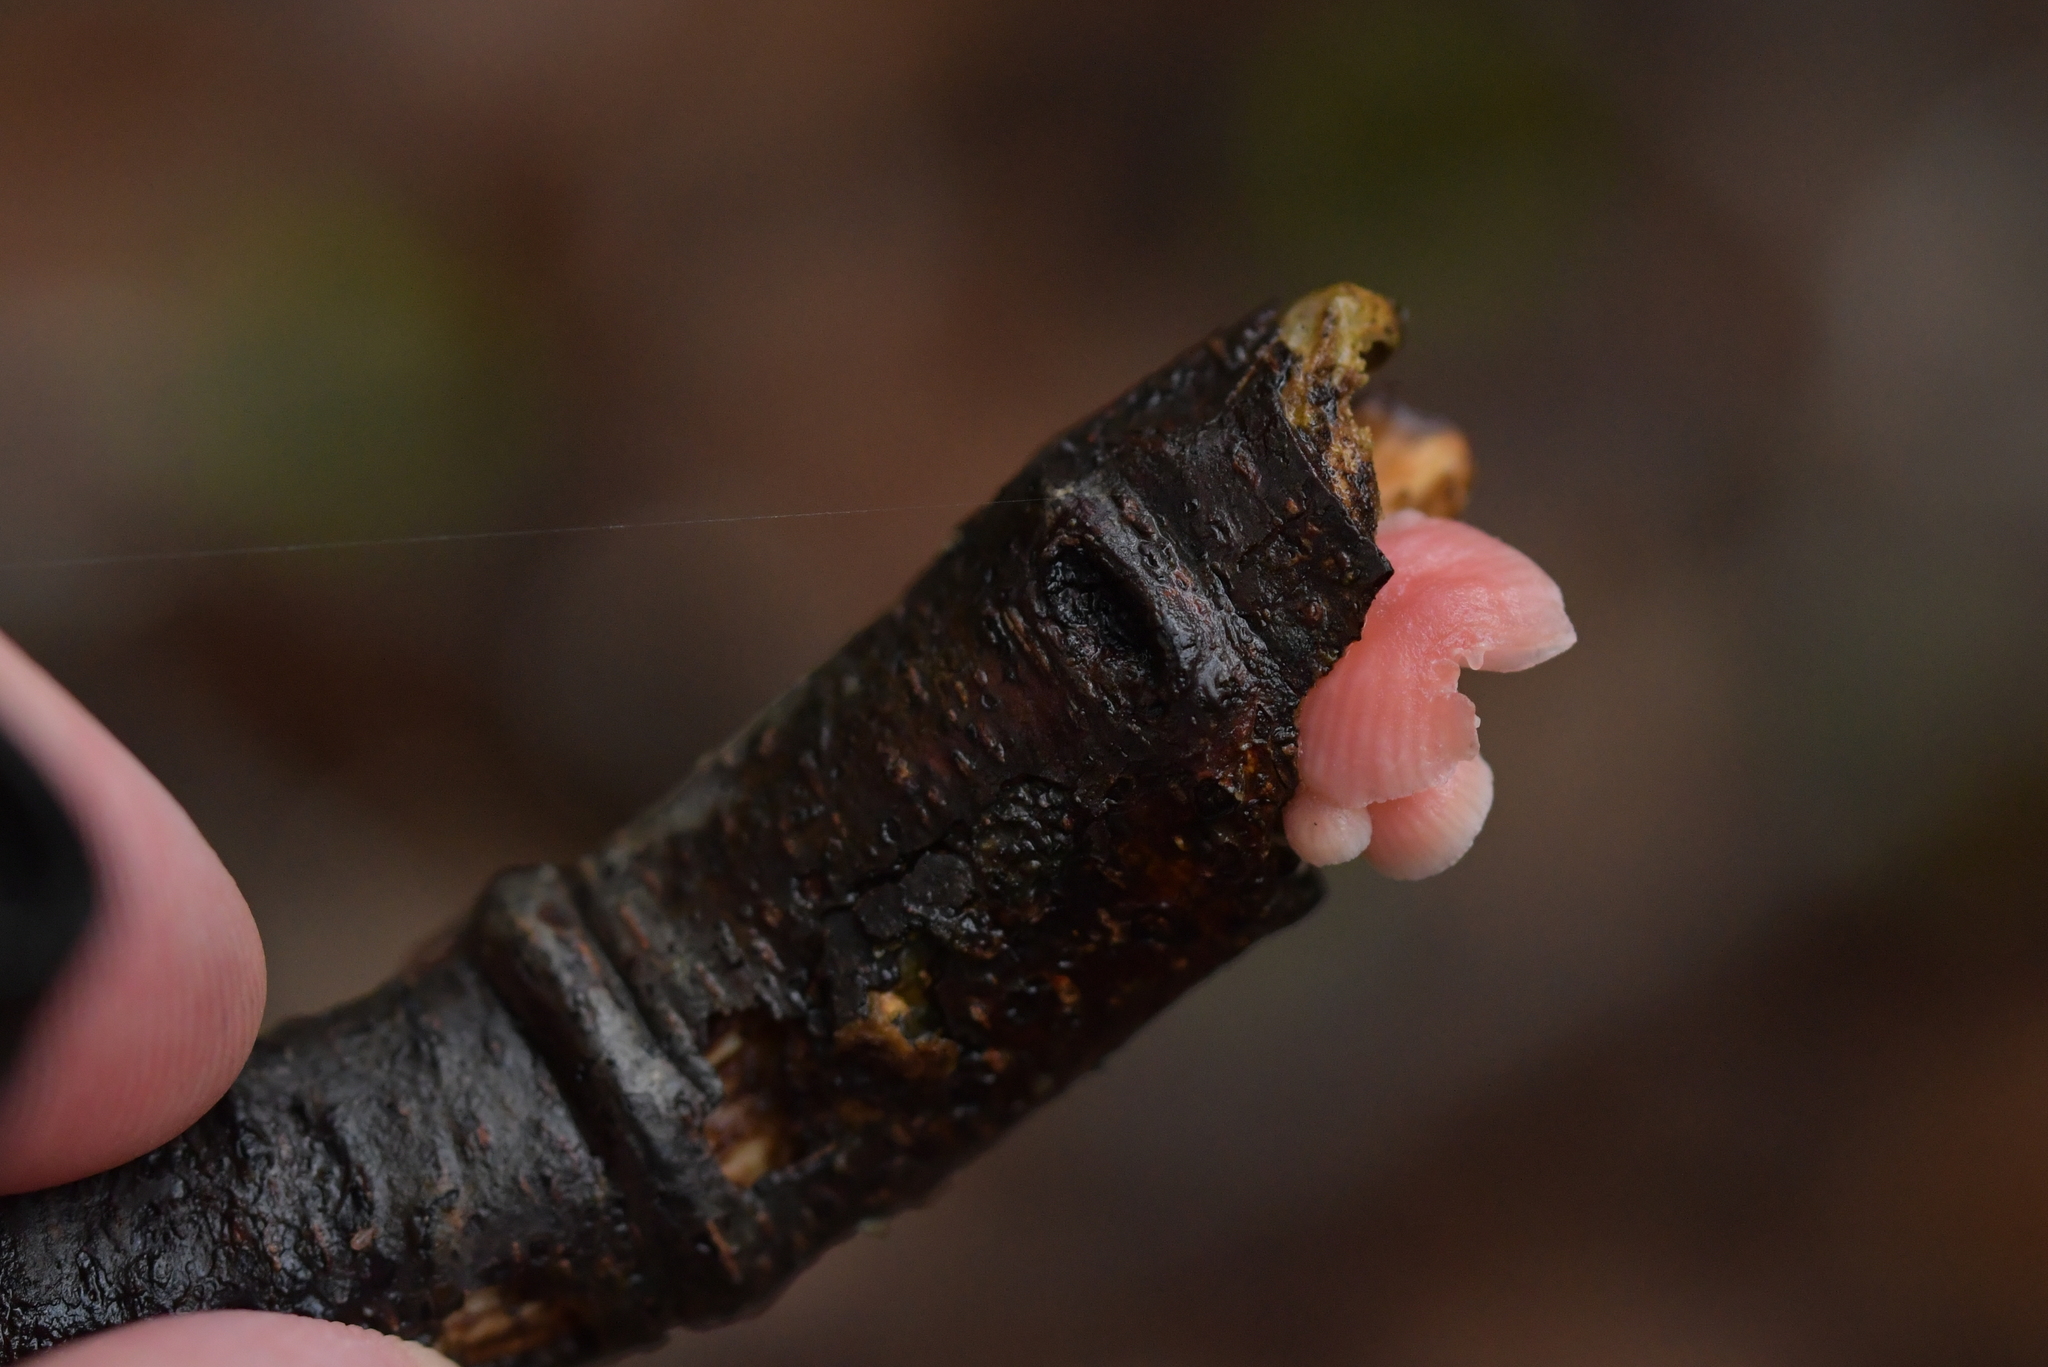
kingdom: Fungi
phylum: Basidiomycota
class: Agaricomycetes
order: Agaricales
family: Mycenaceae
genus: Mycena
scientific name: Mycena roseoflava
